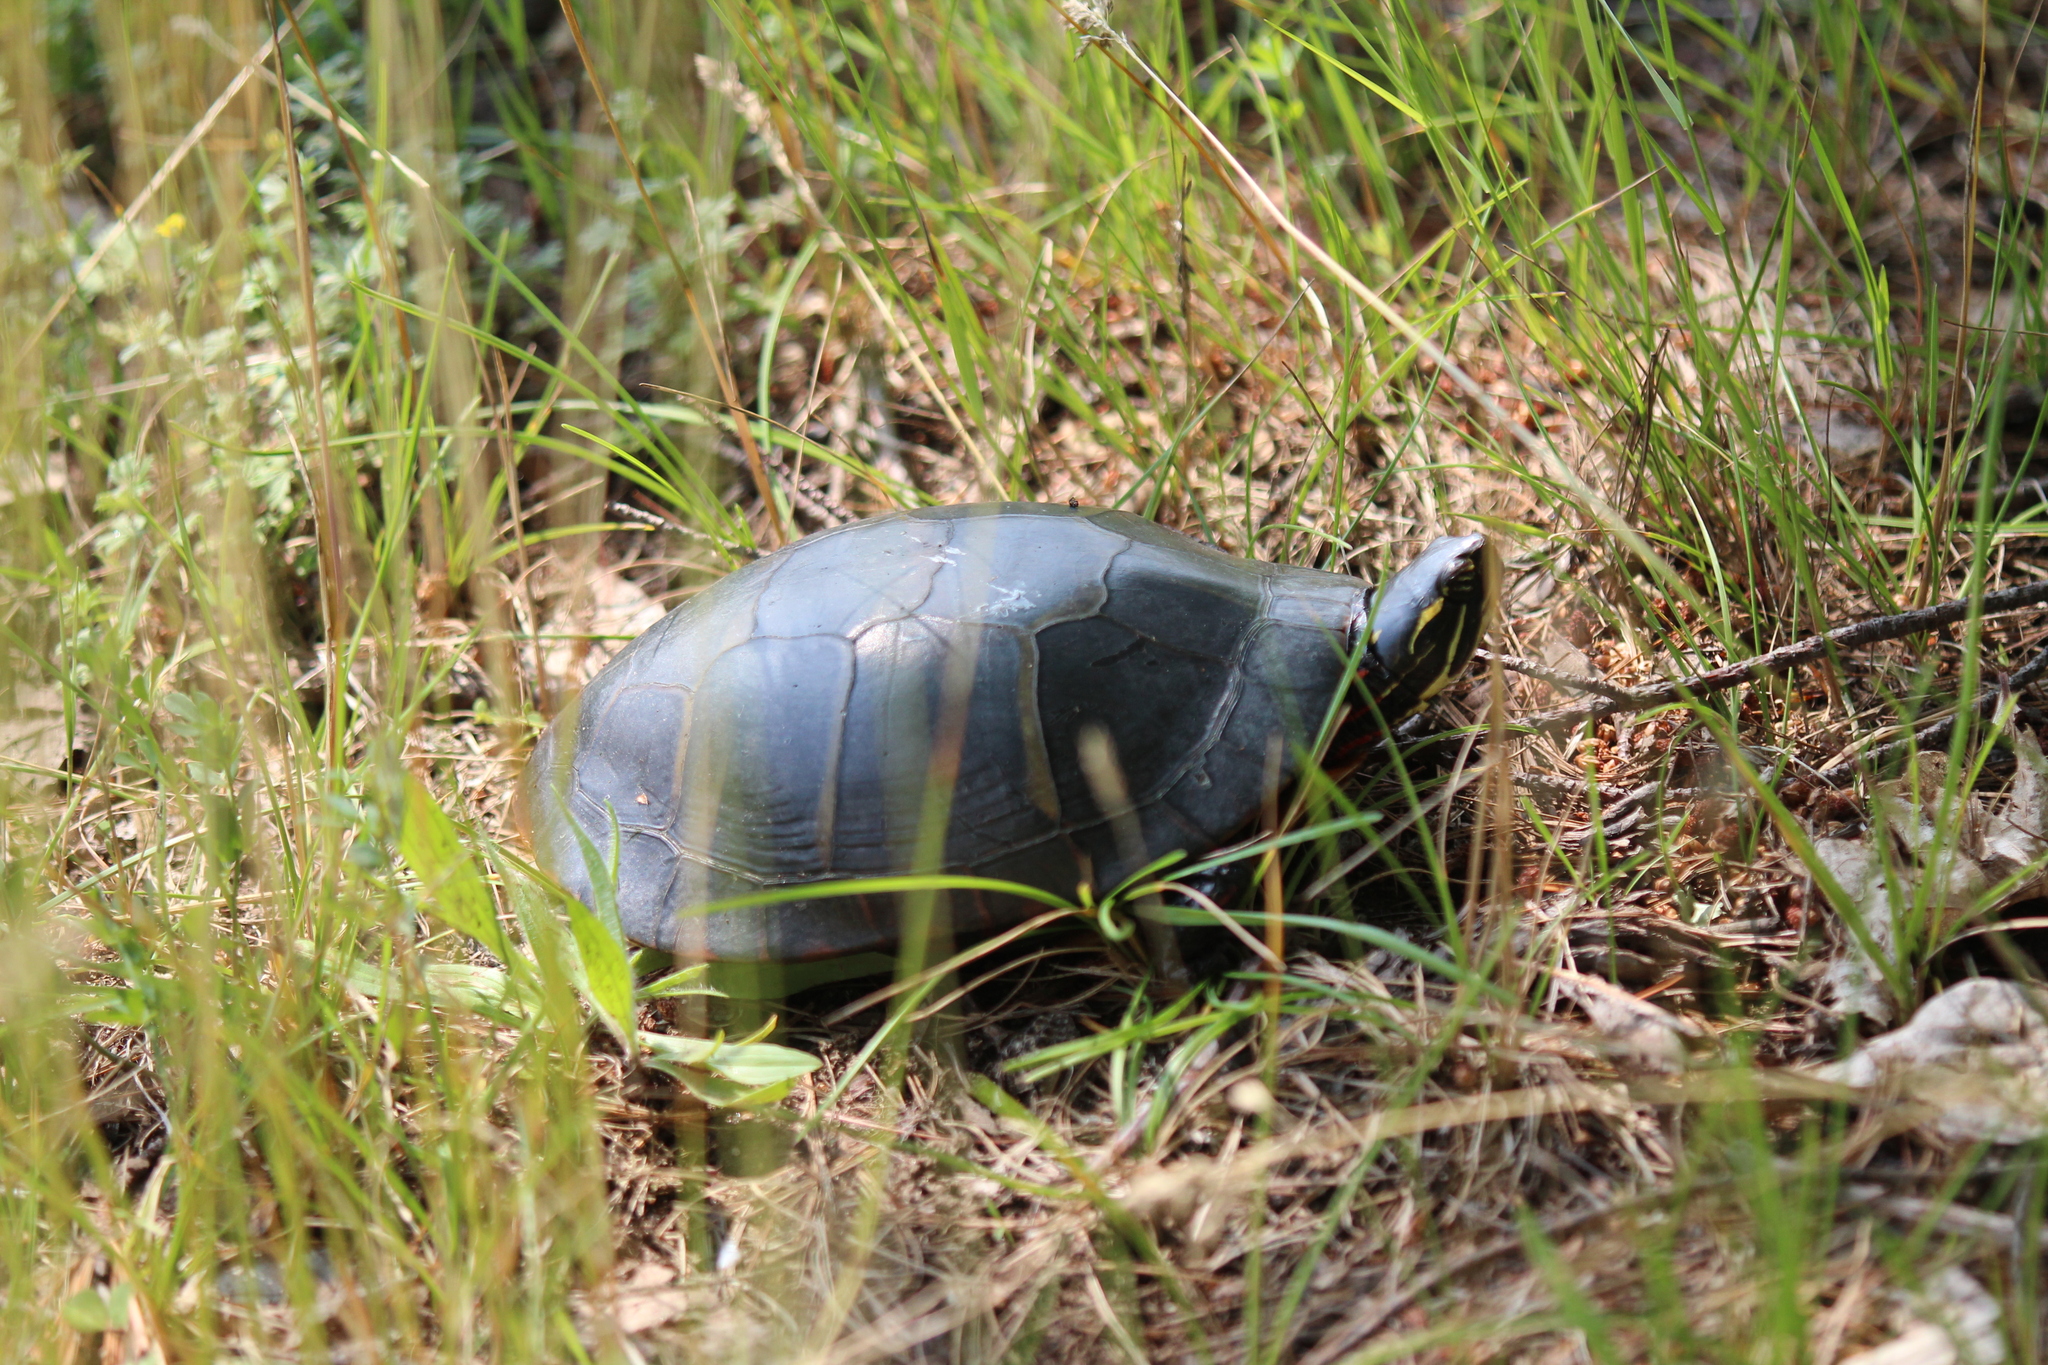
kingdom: Animalia
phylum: Chordata
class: Testudines
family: Emydidae
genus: Chrysemys
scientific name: Chrysemys picta
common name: Painted turtle
